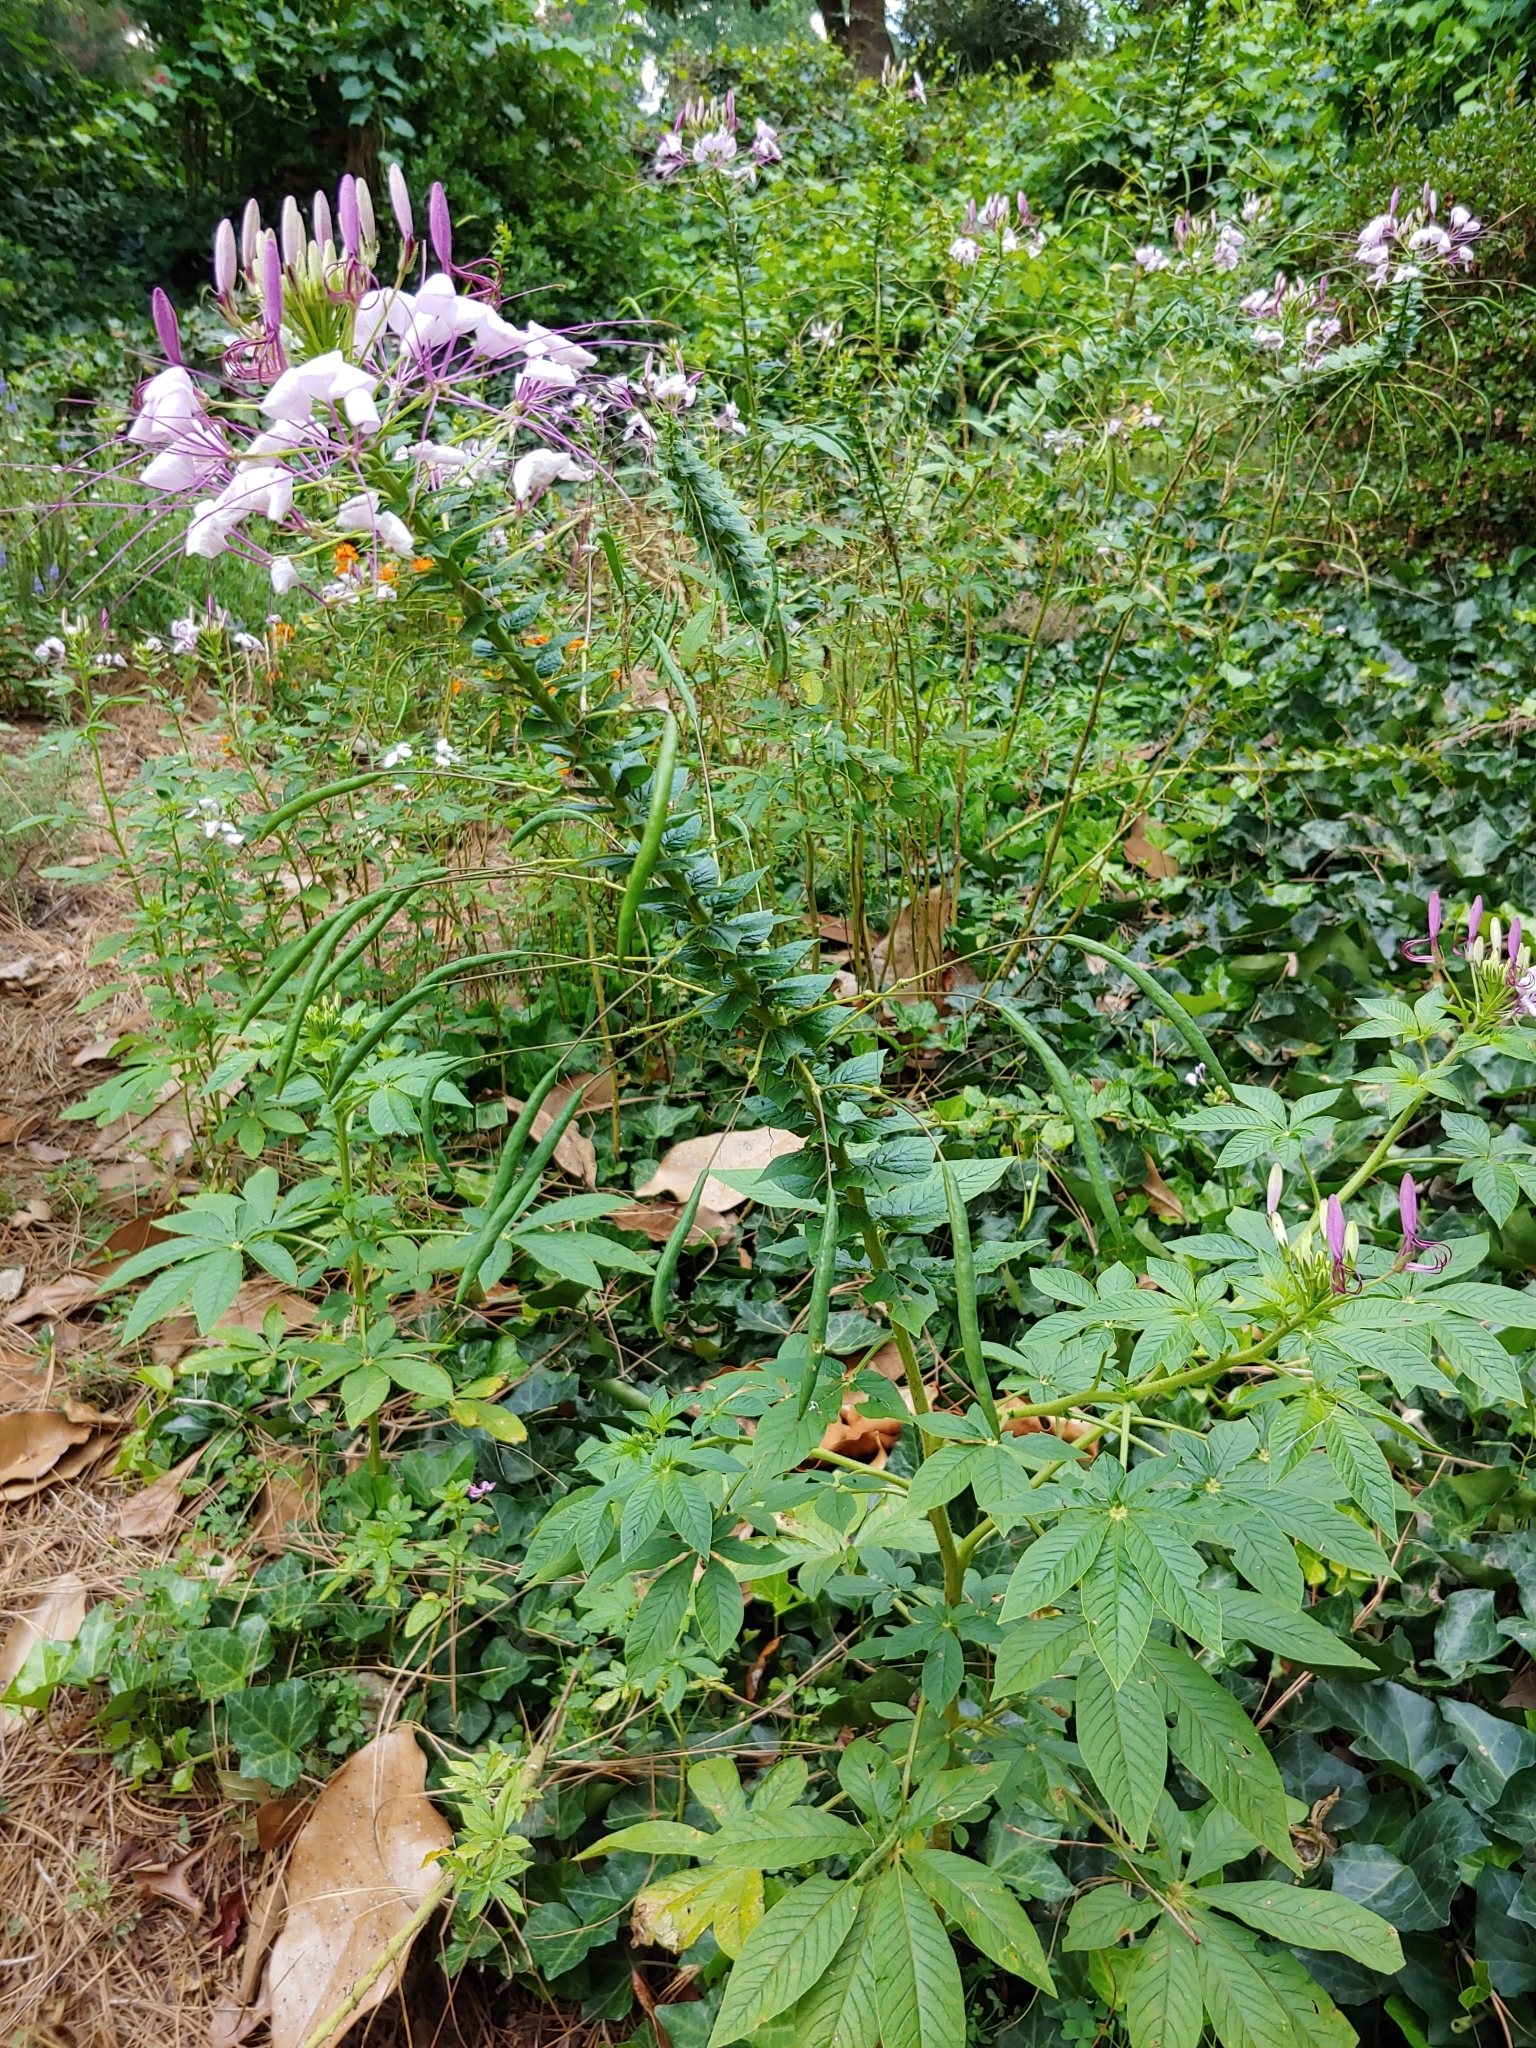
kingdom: Plantae
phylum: Tracheophyta
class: Magnoliopsida
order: Brassicales
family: Cleomaceae
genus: Tarenaya
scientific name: Tarenaya houtteana
